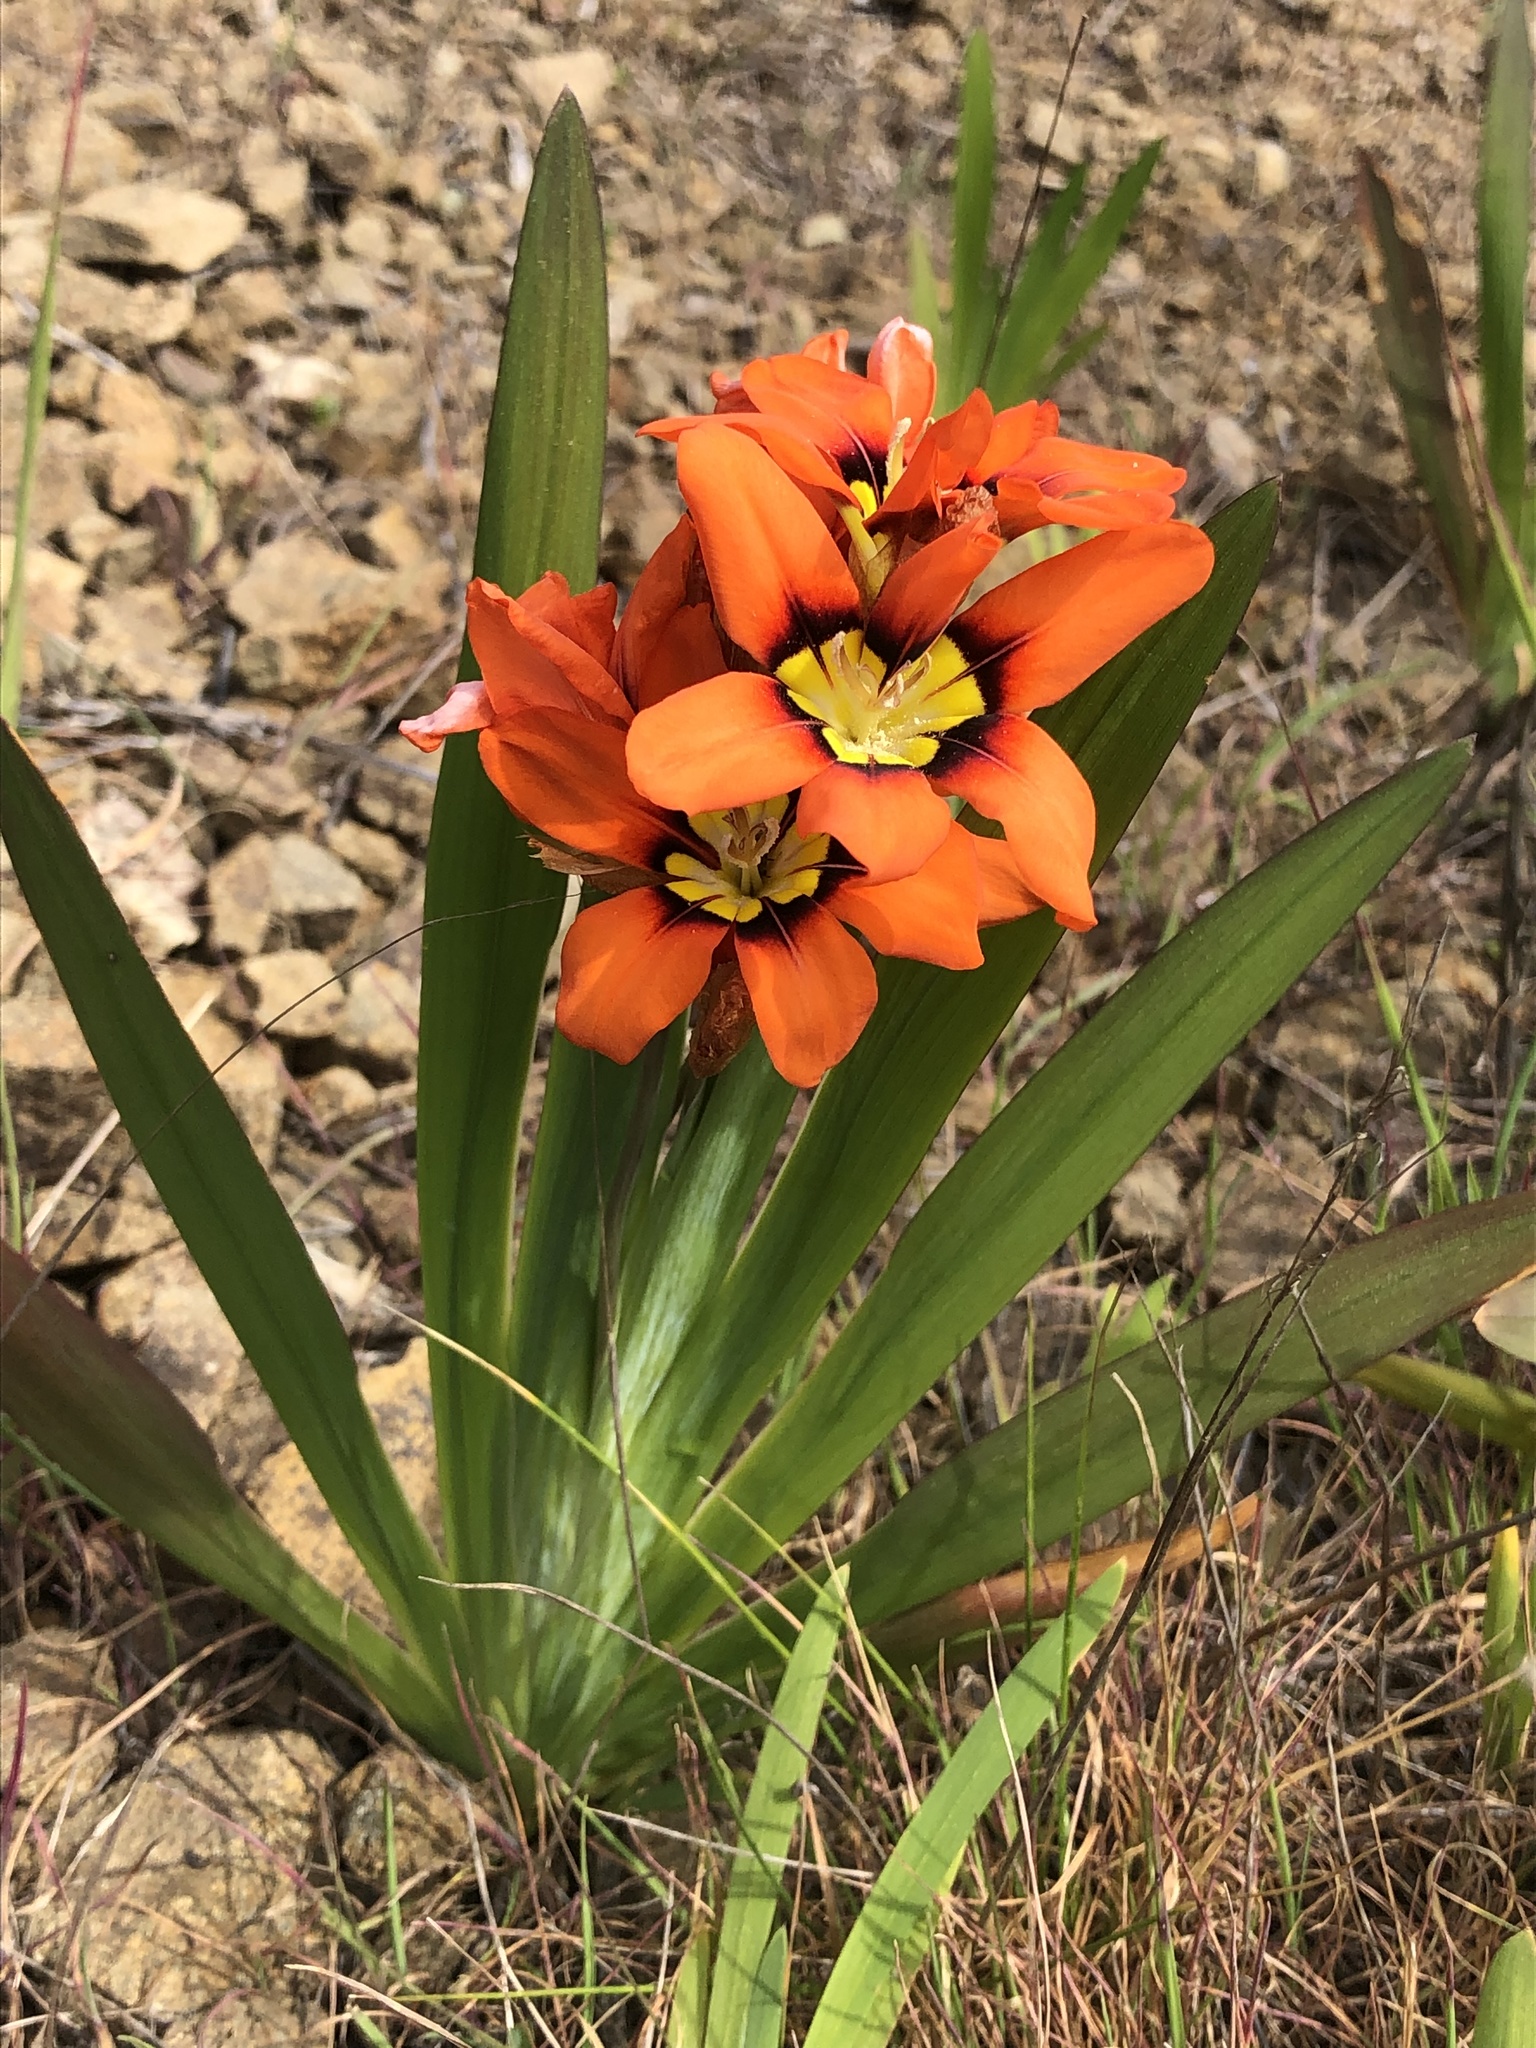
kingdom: Plantae
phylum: Tracheophyta
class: Liliopsida
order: Asparagales
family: Iridaceae
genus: Sparaxis
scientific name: Sparaxis tricolor
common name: Wandflower
